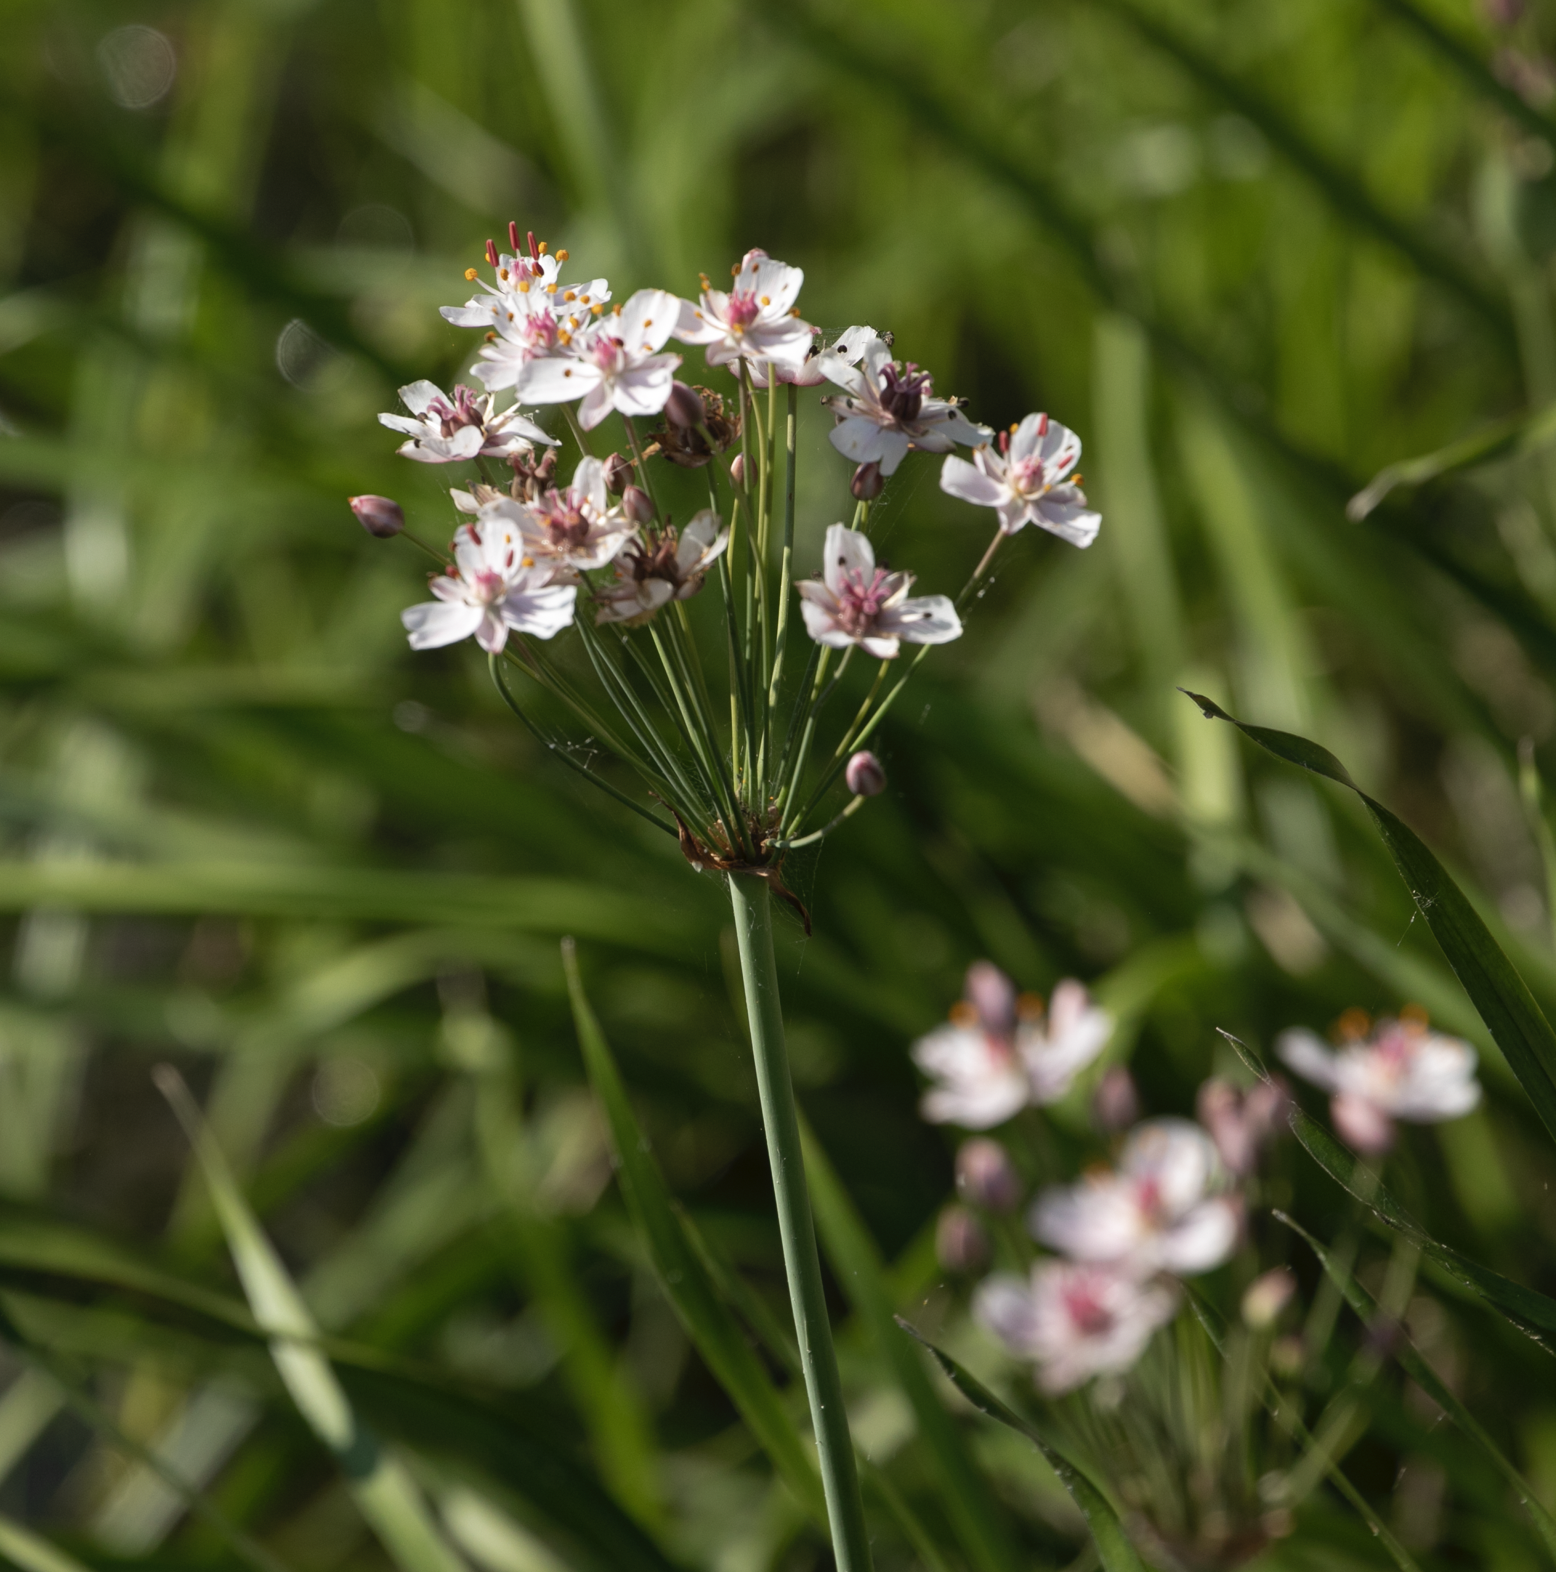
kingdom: Plantae
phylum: Tracheophyta
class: Liliopsida
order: Alismatales
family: Butomaceae
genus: Butomus
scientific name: Butomus umbellatus
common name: Flowering-rush
